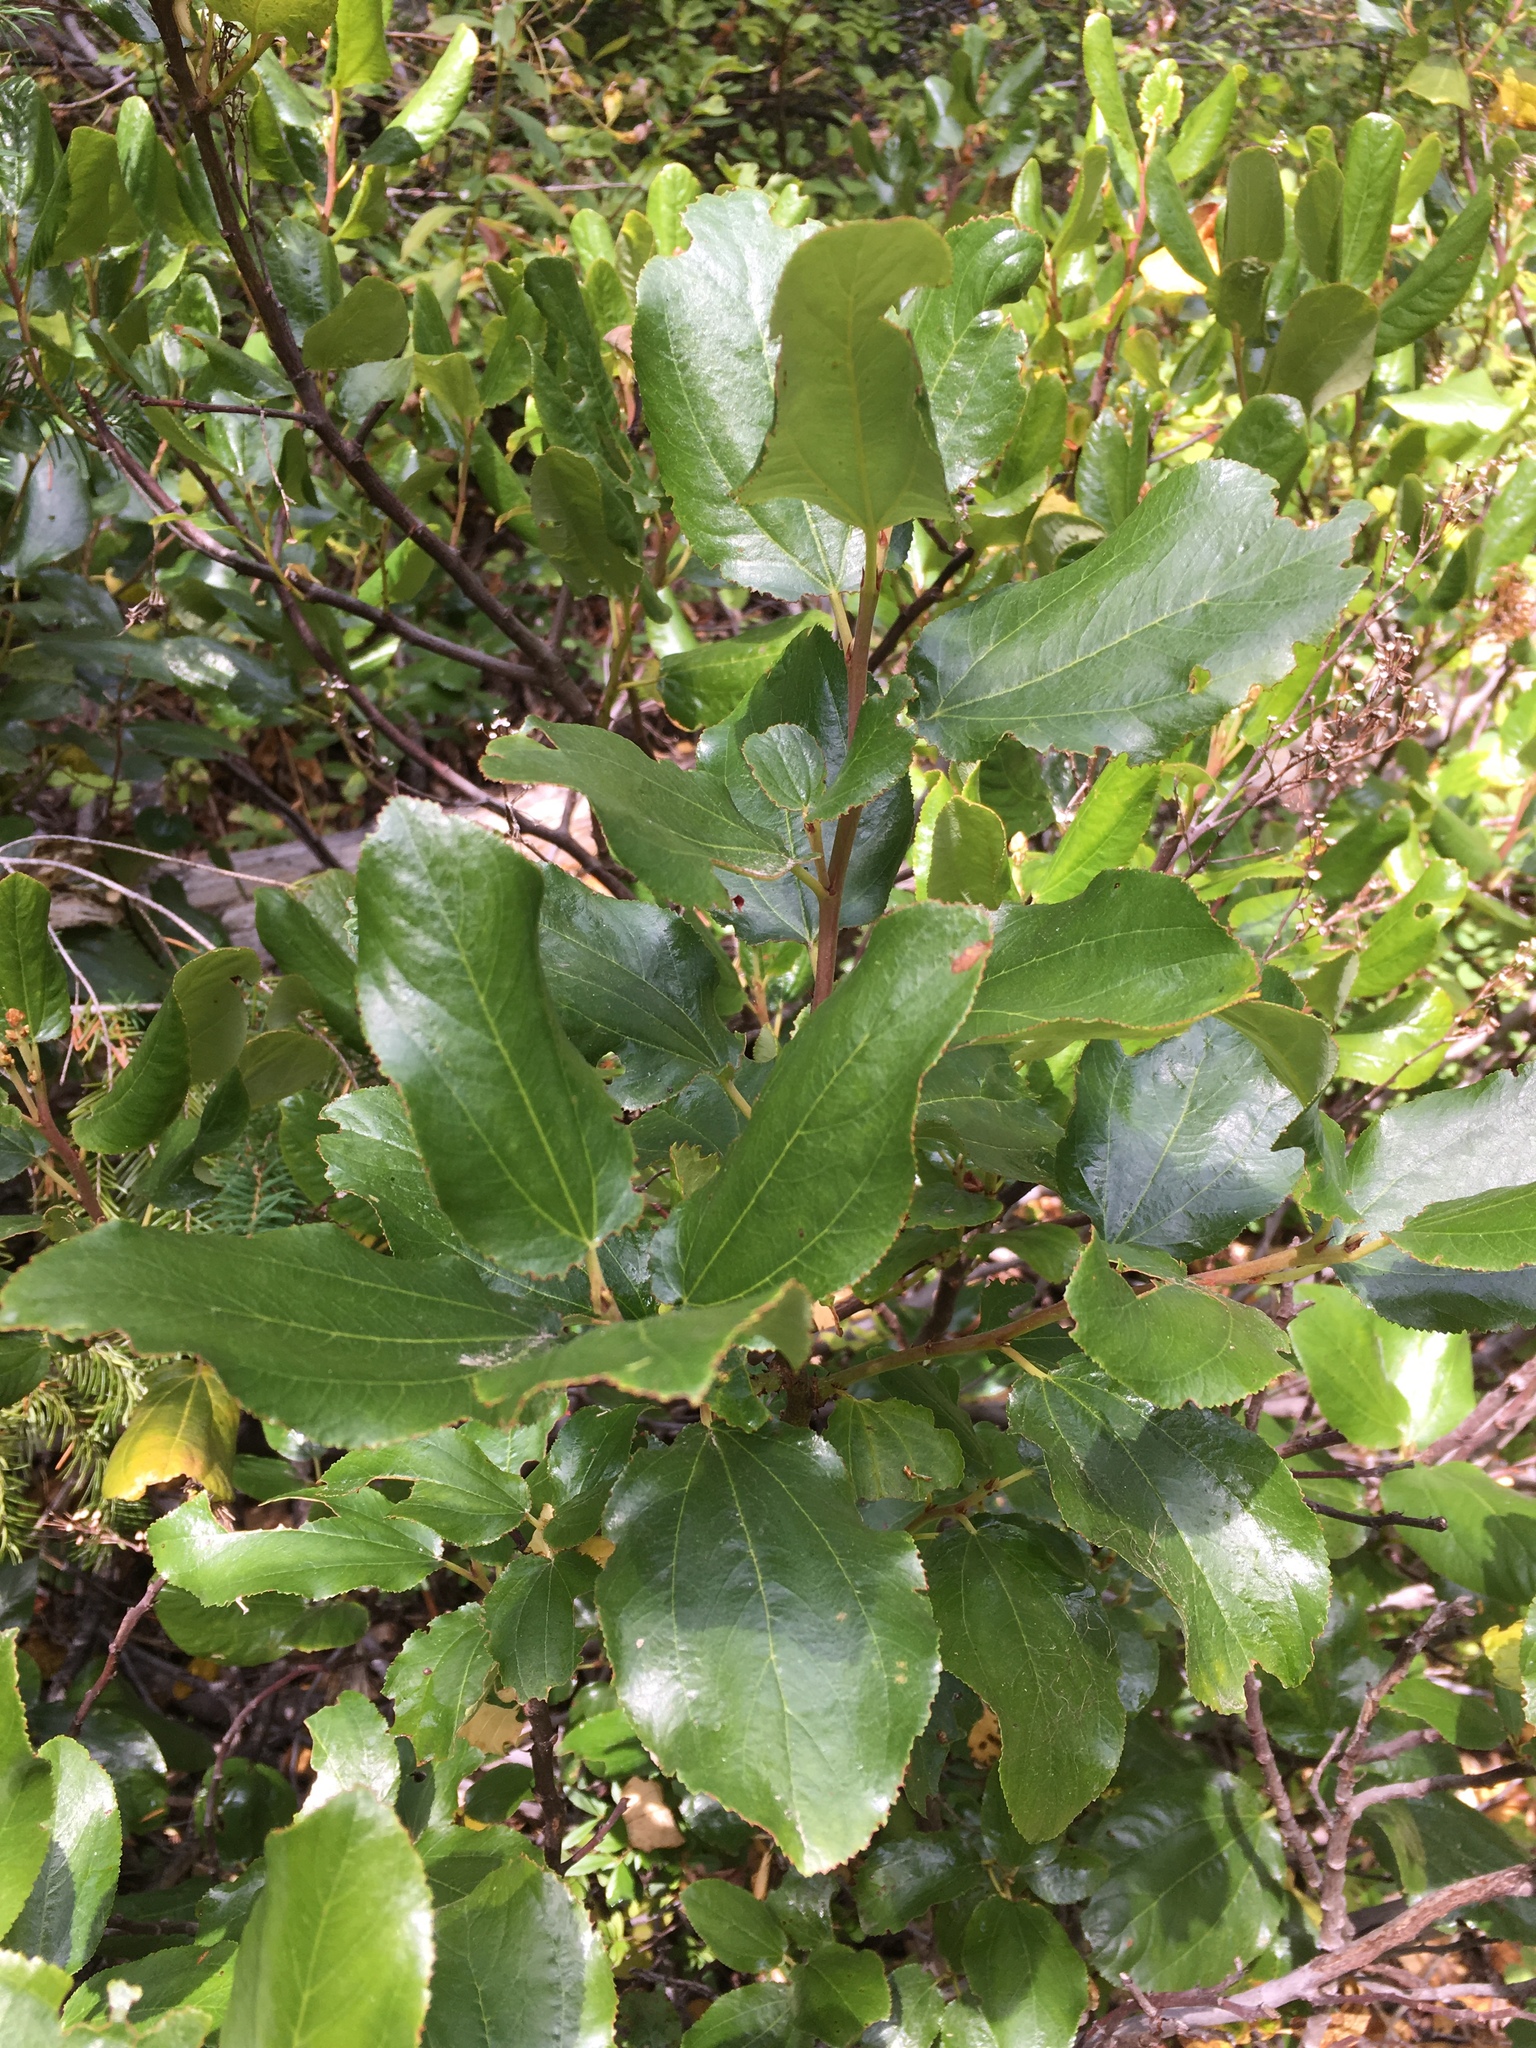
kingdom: Plantae
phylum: Tracheophyta
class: Magnoliopsida
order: Rosales
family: Rhamnaceae
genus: Ceanothus
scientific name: Ceanothus velutinus
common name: Snowbrush
